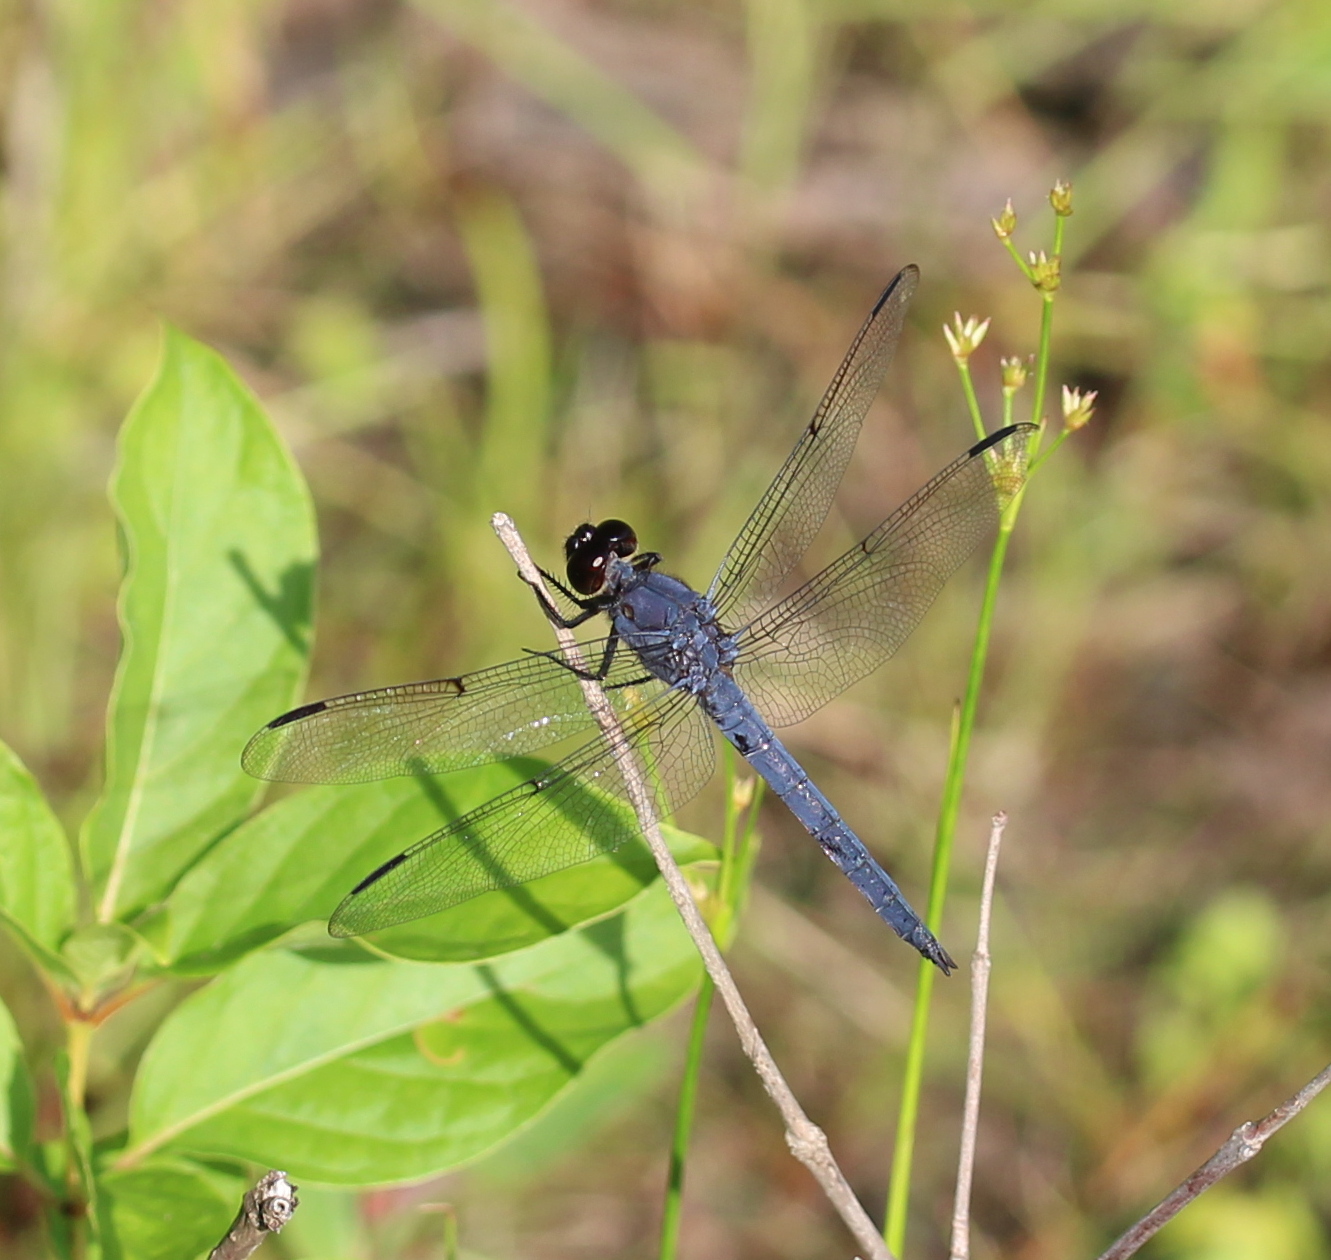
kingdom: Animalia
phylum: Arthropoda
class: Insecta
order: Odonata
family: Libellulidae
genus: Libellula
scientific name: Libellula incesta
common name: Slaty skimmer
